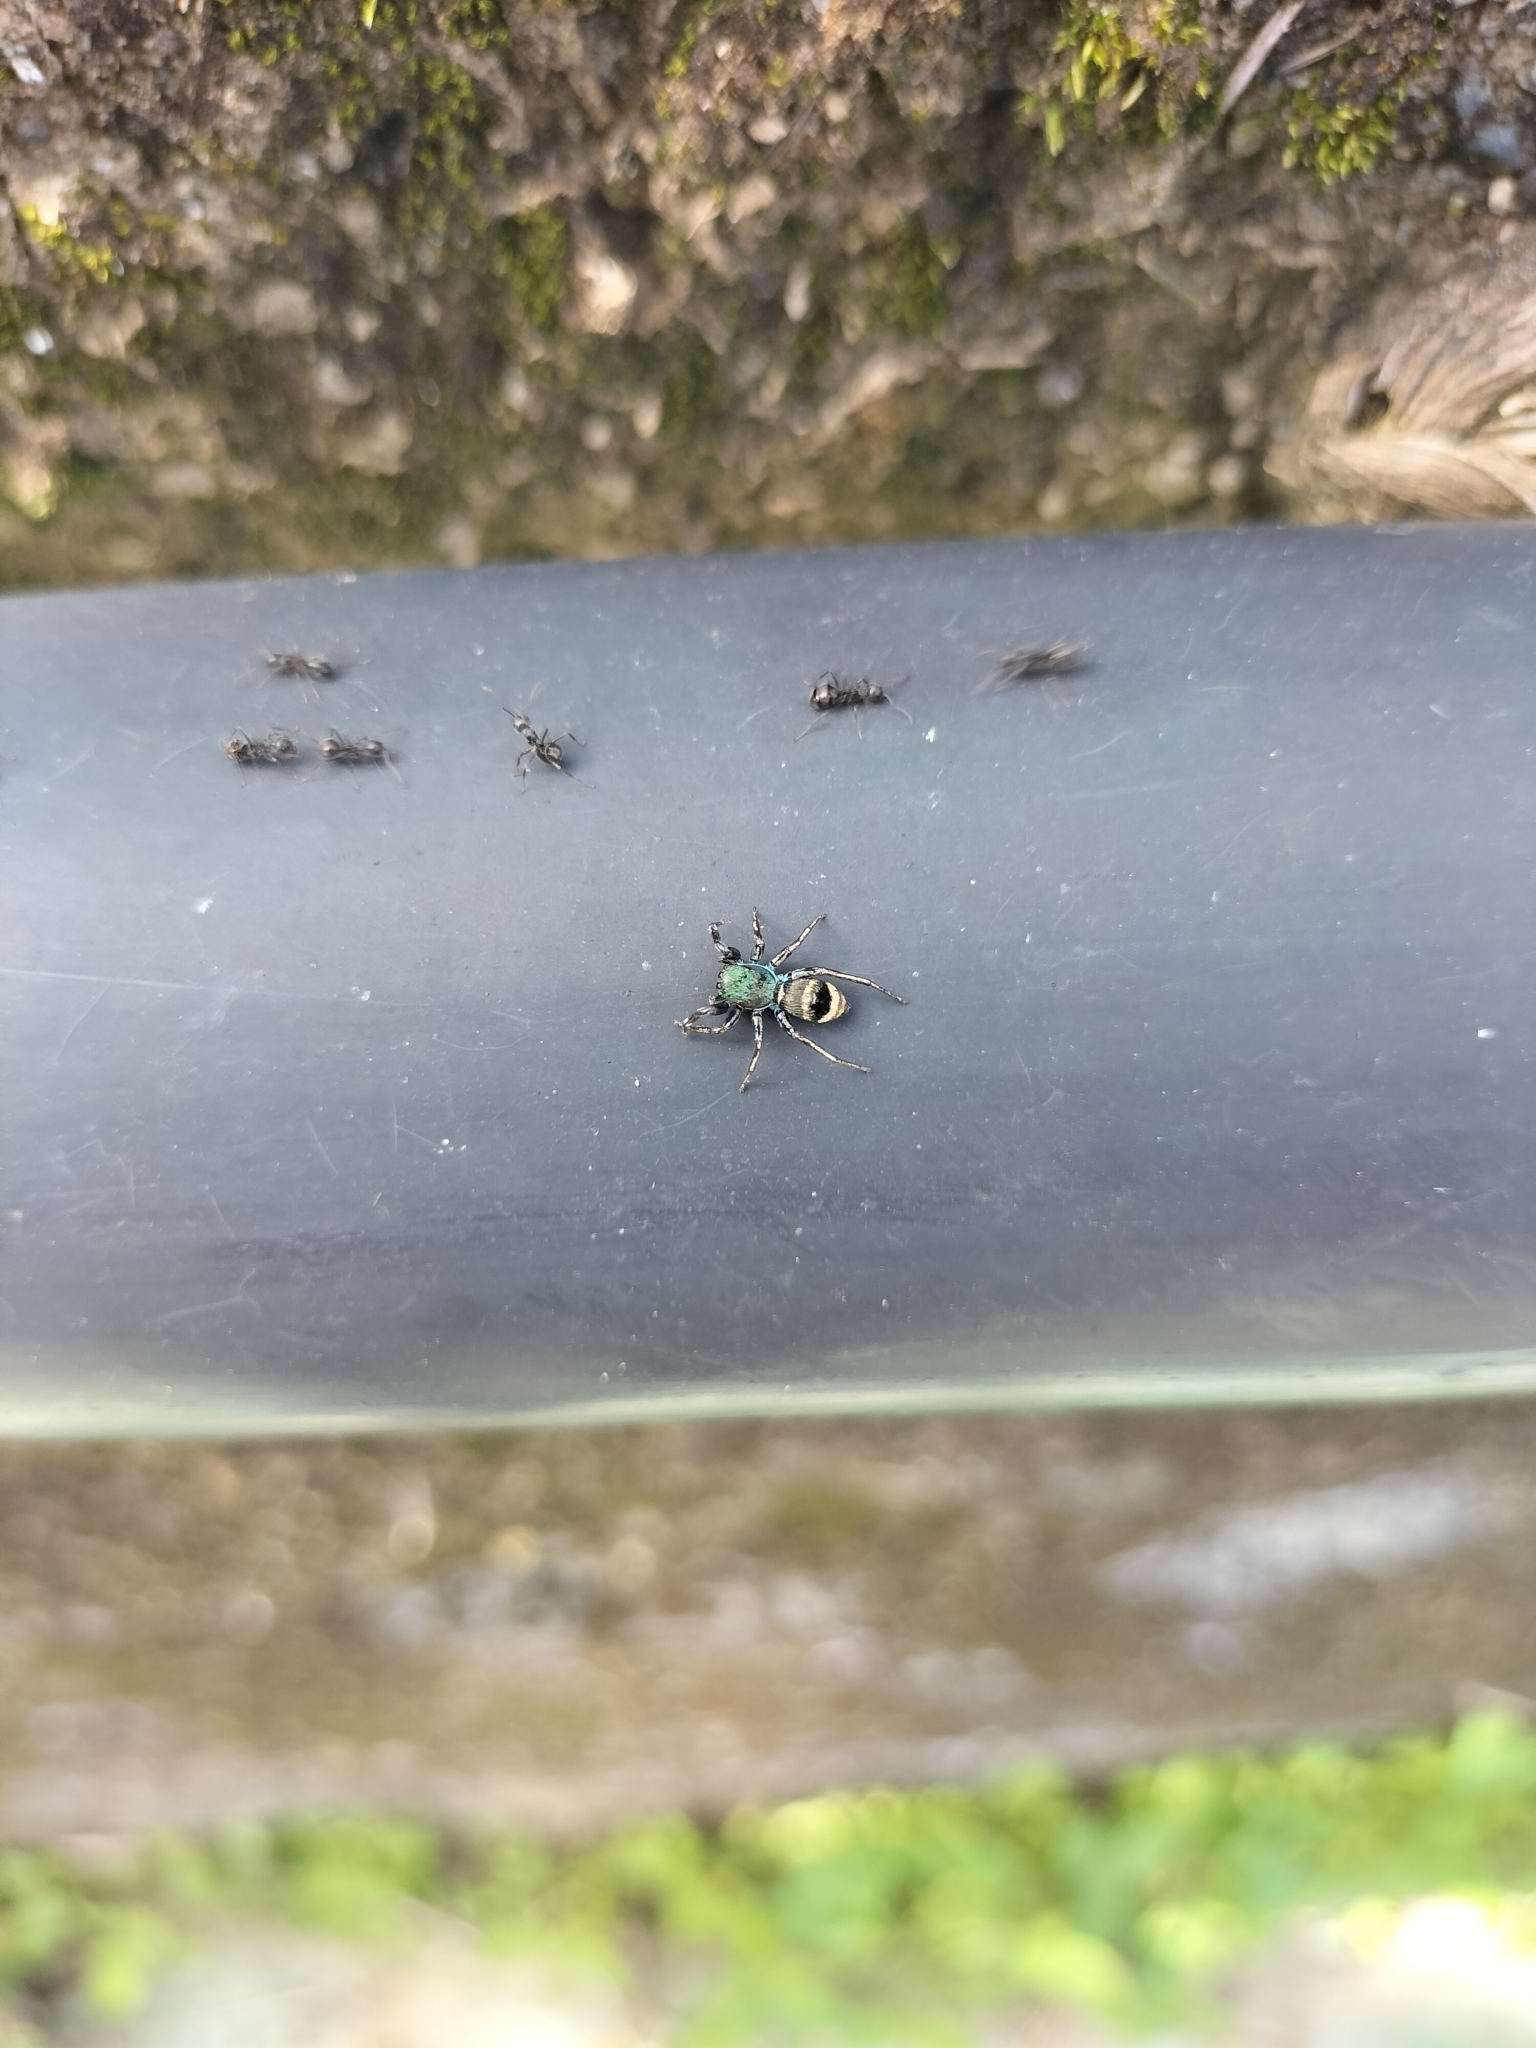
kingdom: Animalia
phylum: Arthropoda
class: Arachnida
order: Araneae
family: Salticidae
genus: Siler
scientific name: Siler cupreus
